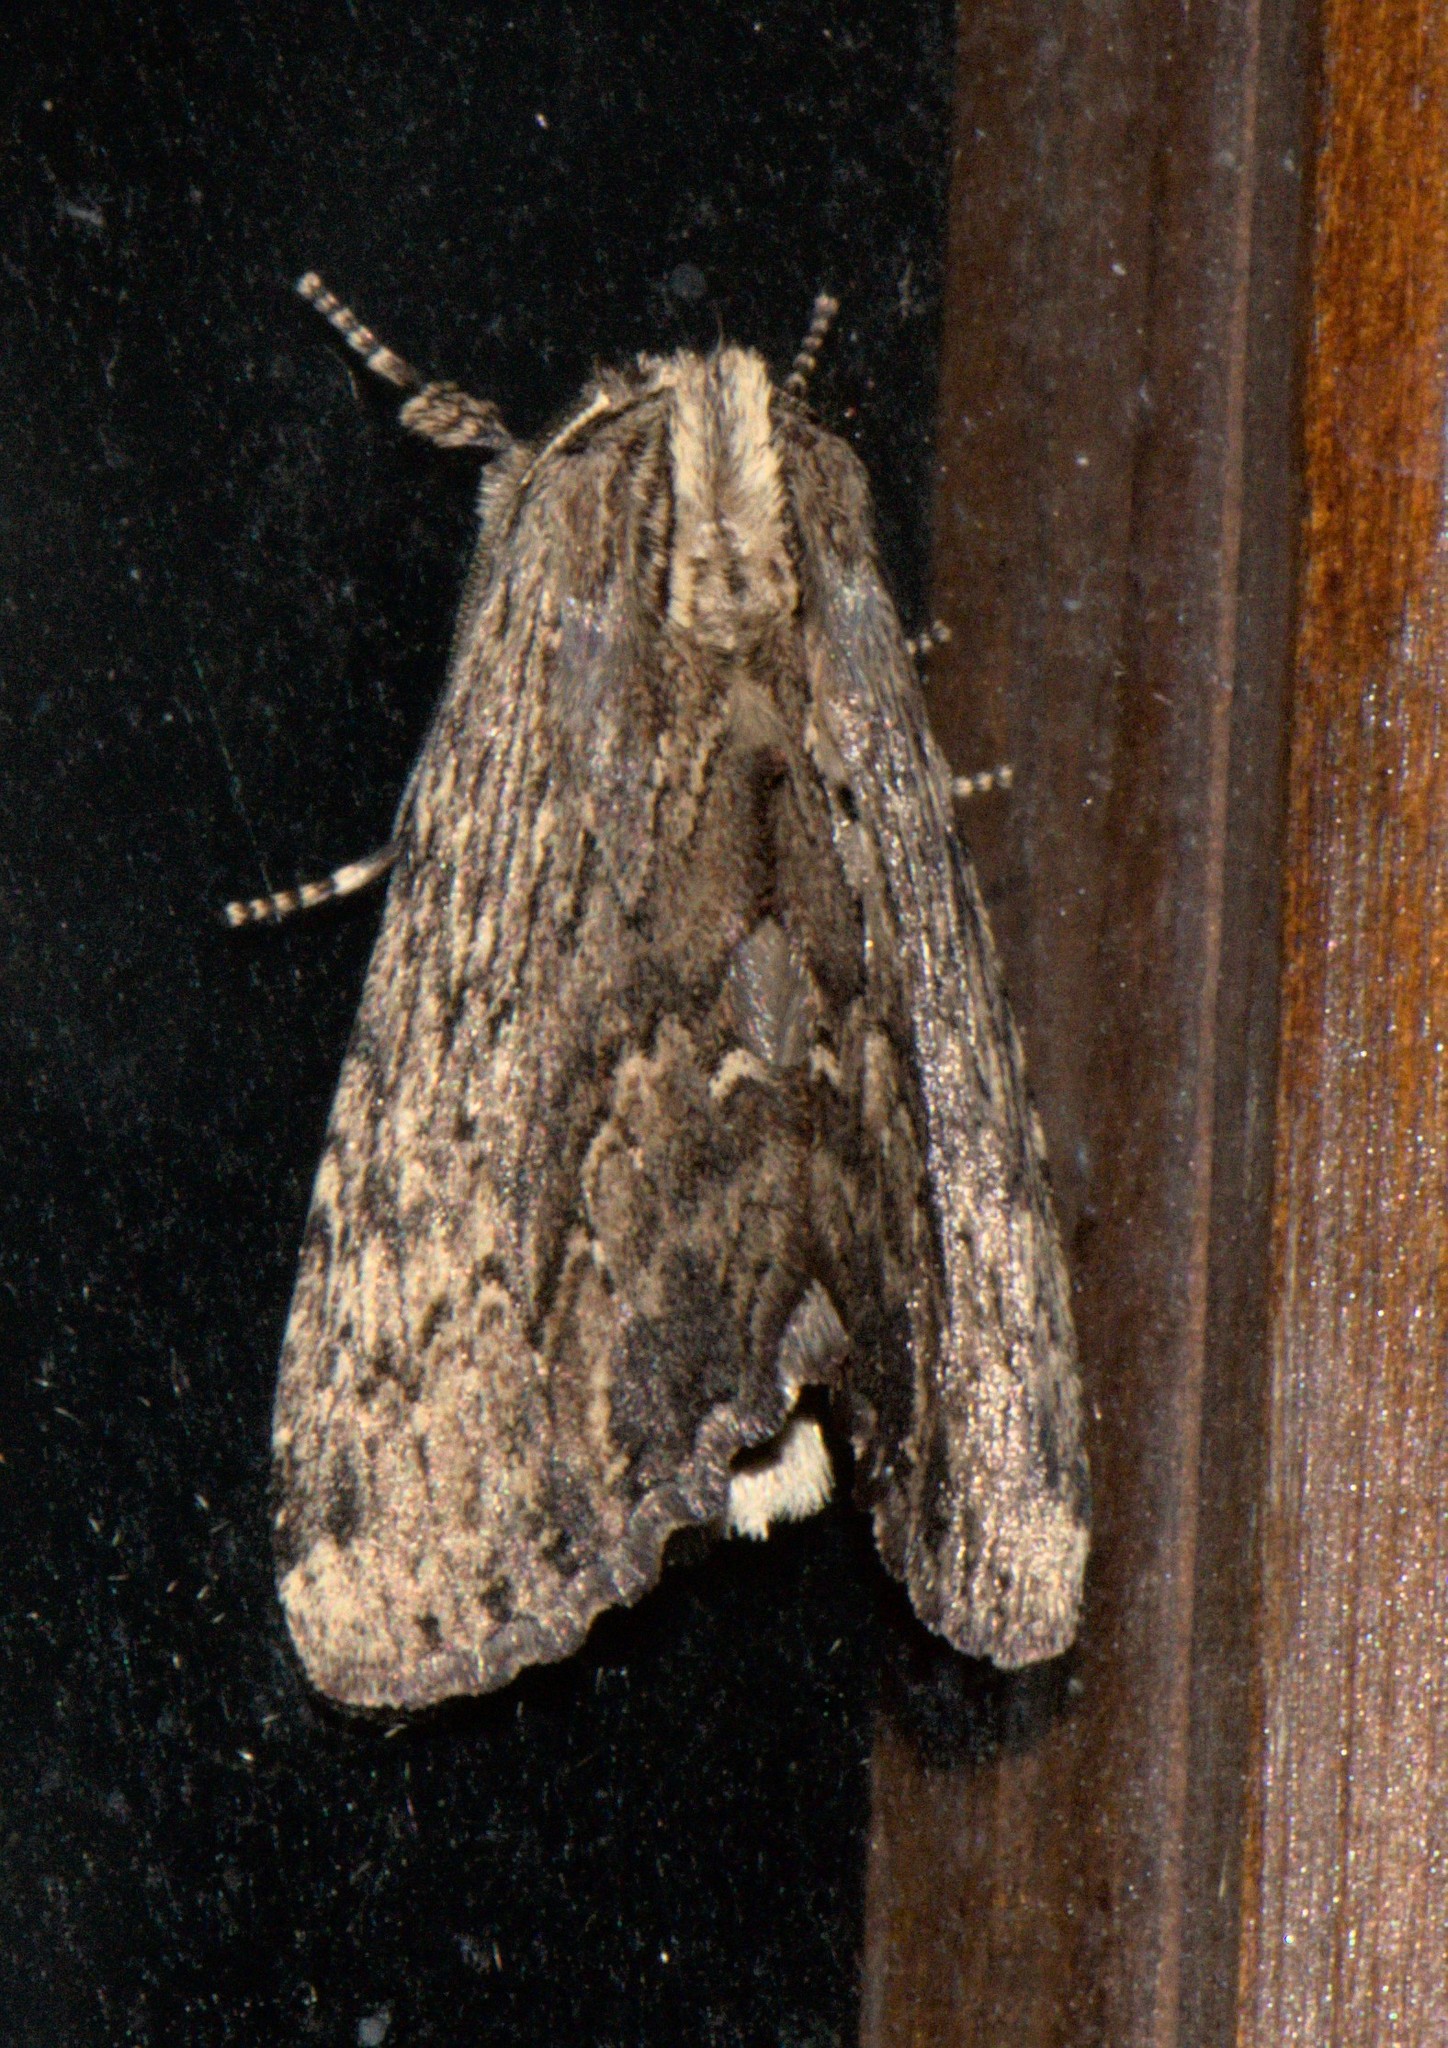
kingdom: Animalia
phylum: Arthropoda
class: Insecta
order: Lepidoptera
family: Notodontidae
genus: Spatalina
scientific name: Spatalina desiccata
